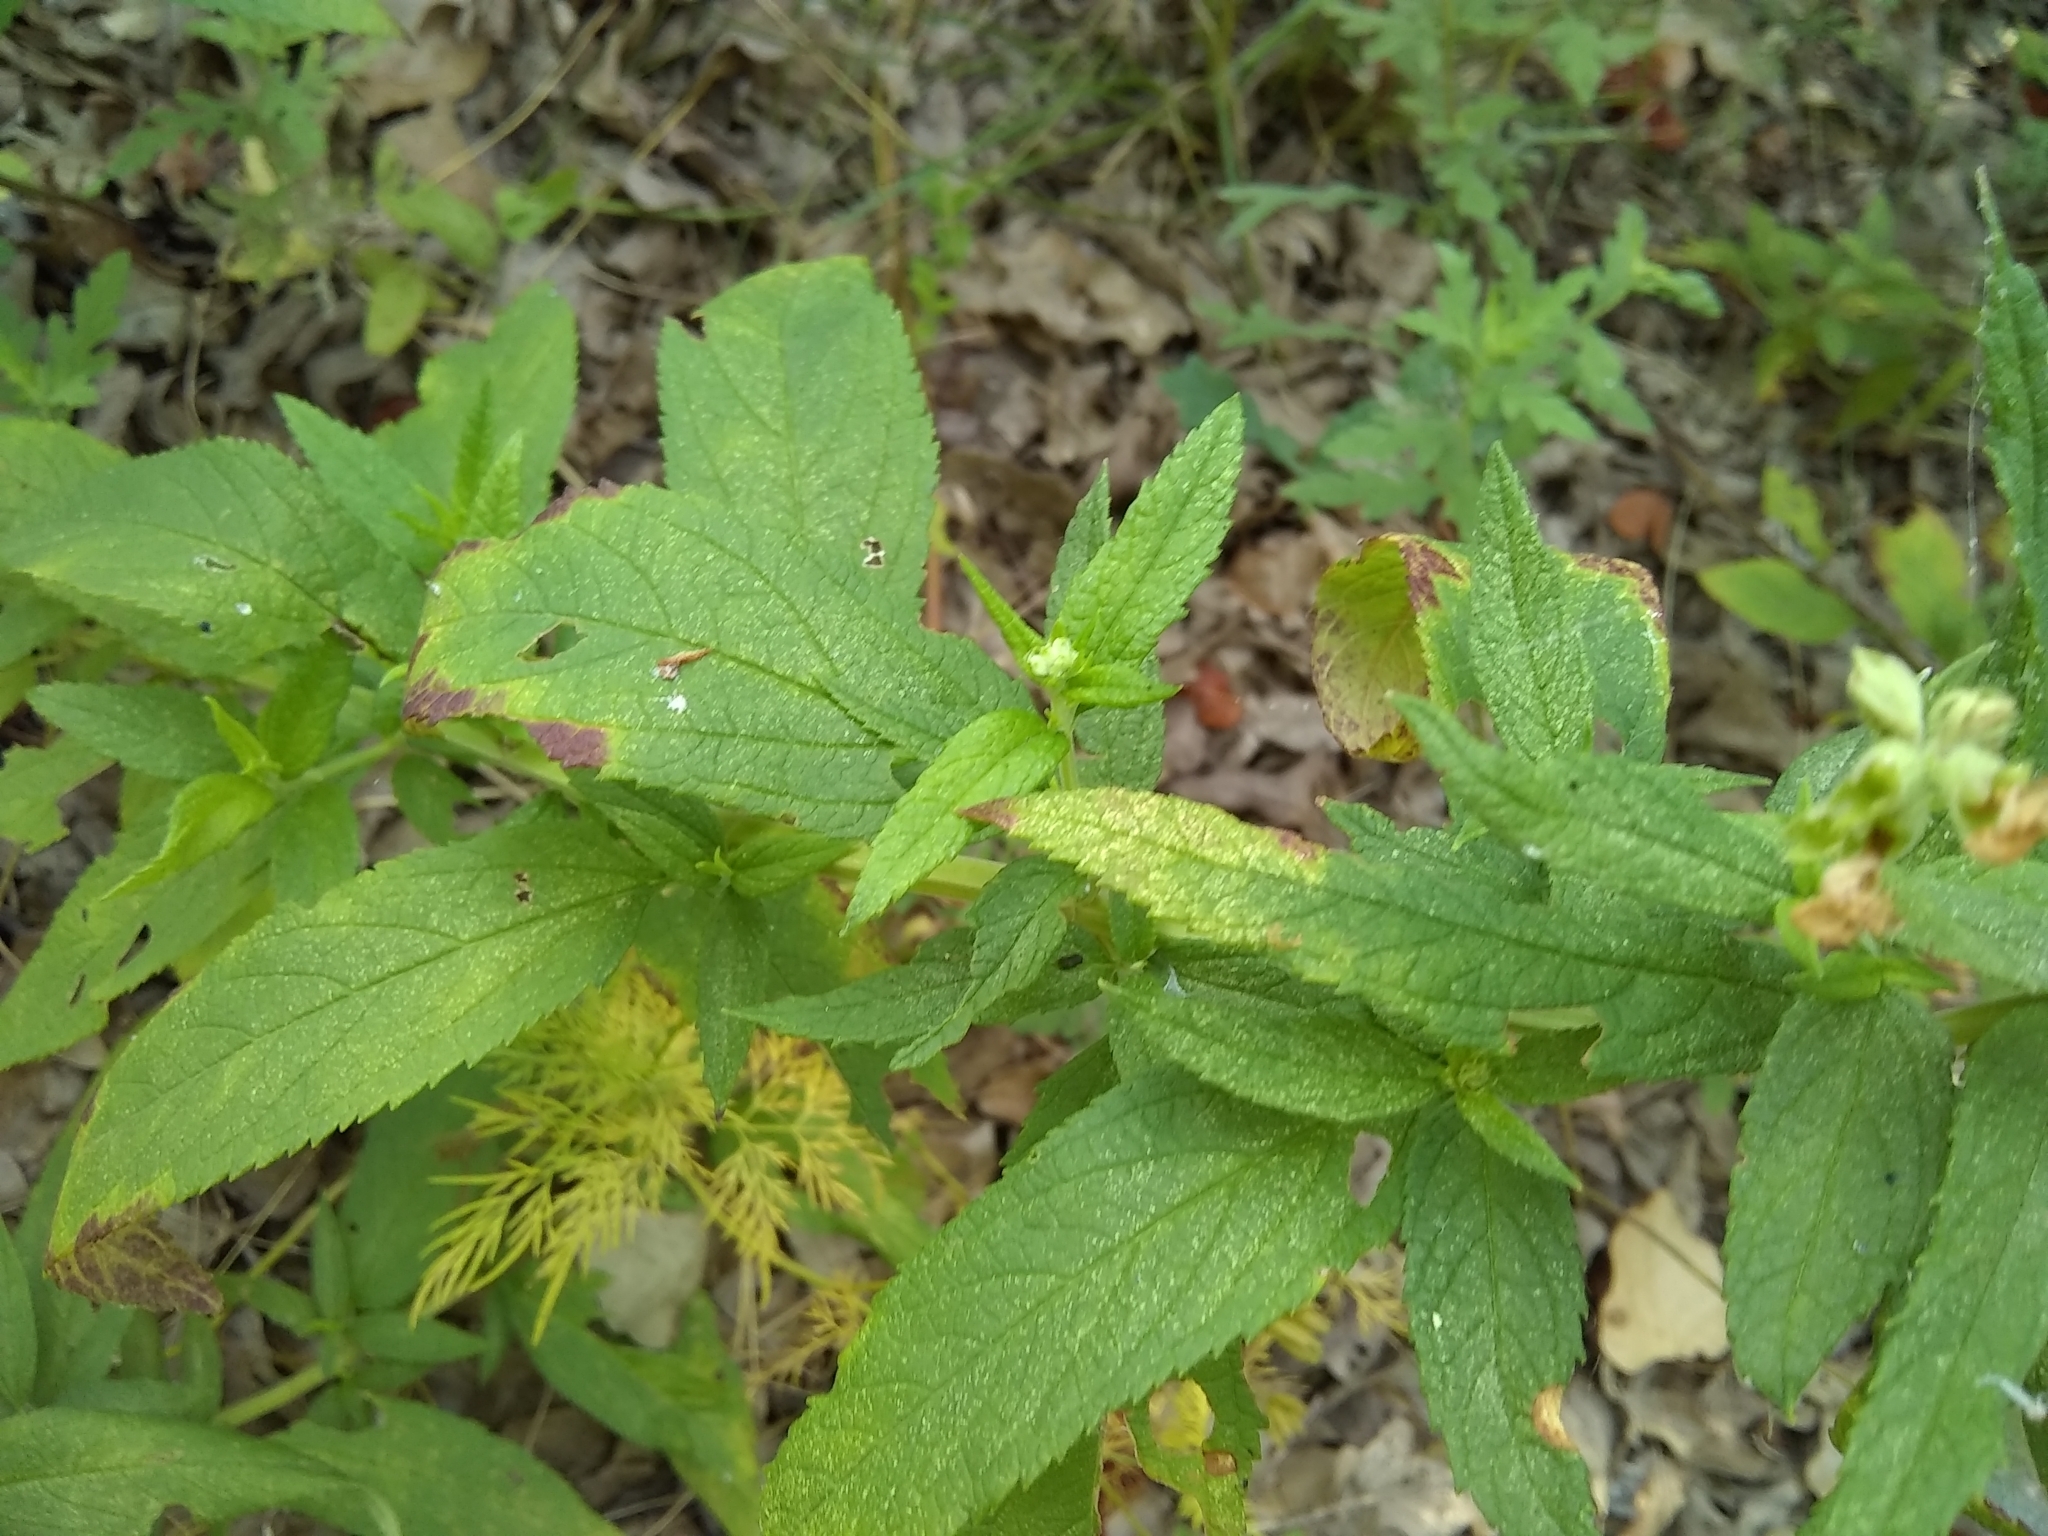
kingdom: Plantae
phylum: Tracheophyta
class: Magnoliopsida
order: Lamiales
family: Lamiaceae
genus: Teucrium
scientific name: Teucrium canadense
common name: American germander
